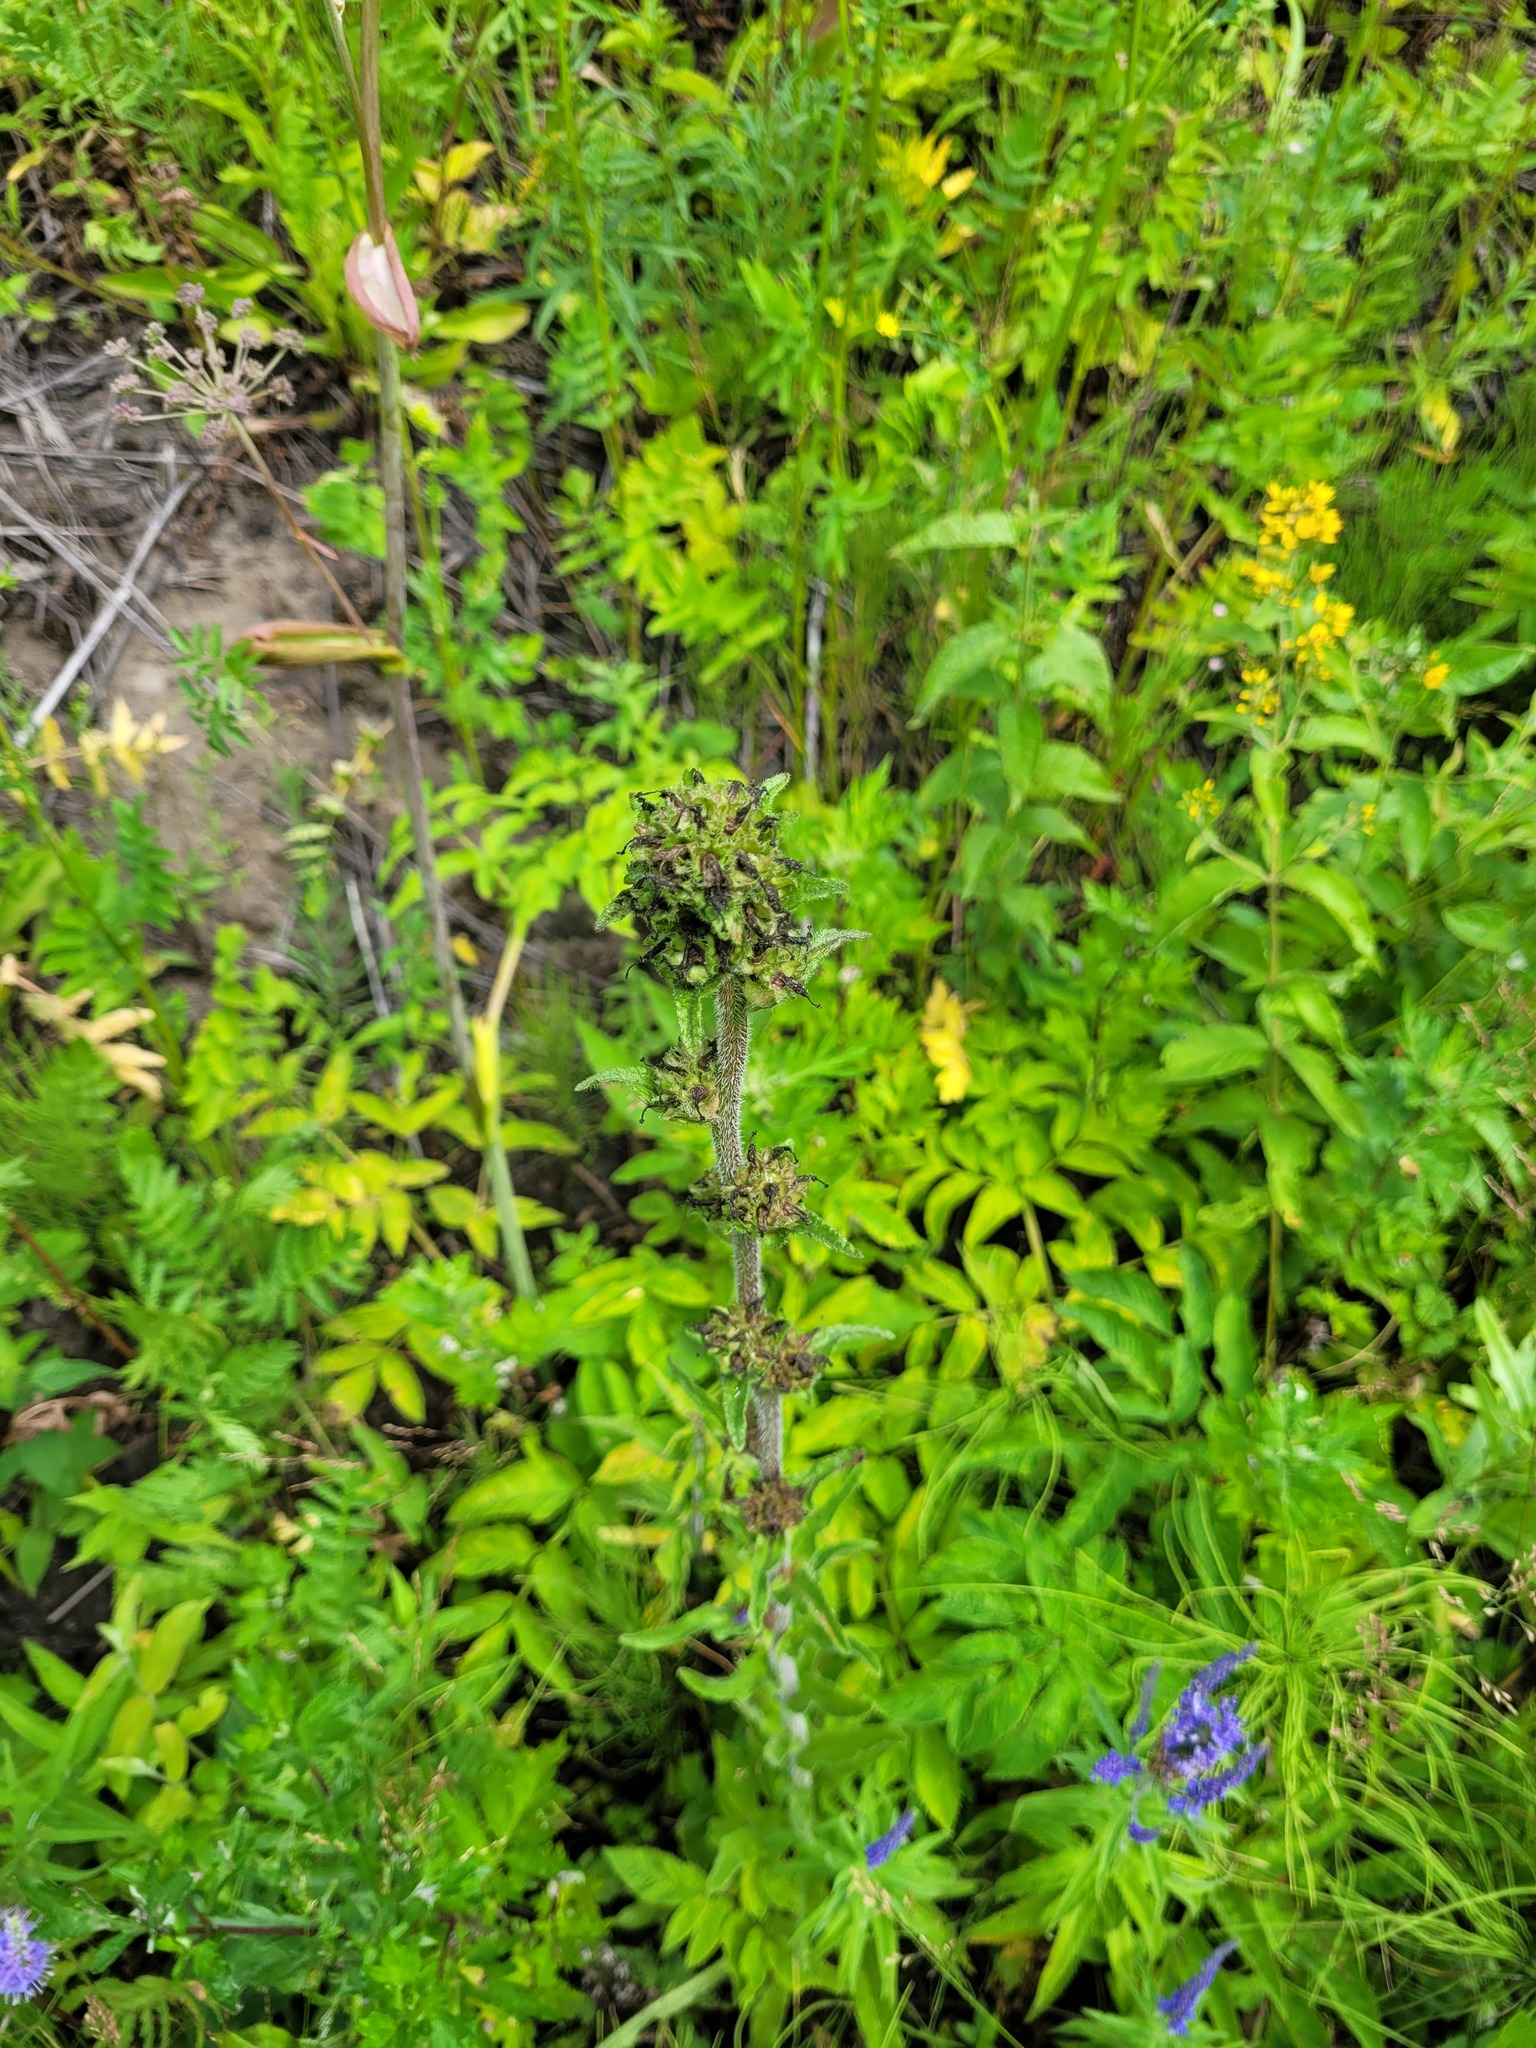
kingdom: Plantae
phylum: Tracheophyta
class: Magnoliopsida
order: Asterales
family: Campanulaceae
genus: Campanula
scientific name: Campanula cervicaria
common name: Bristly bellflower
